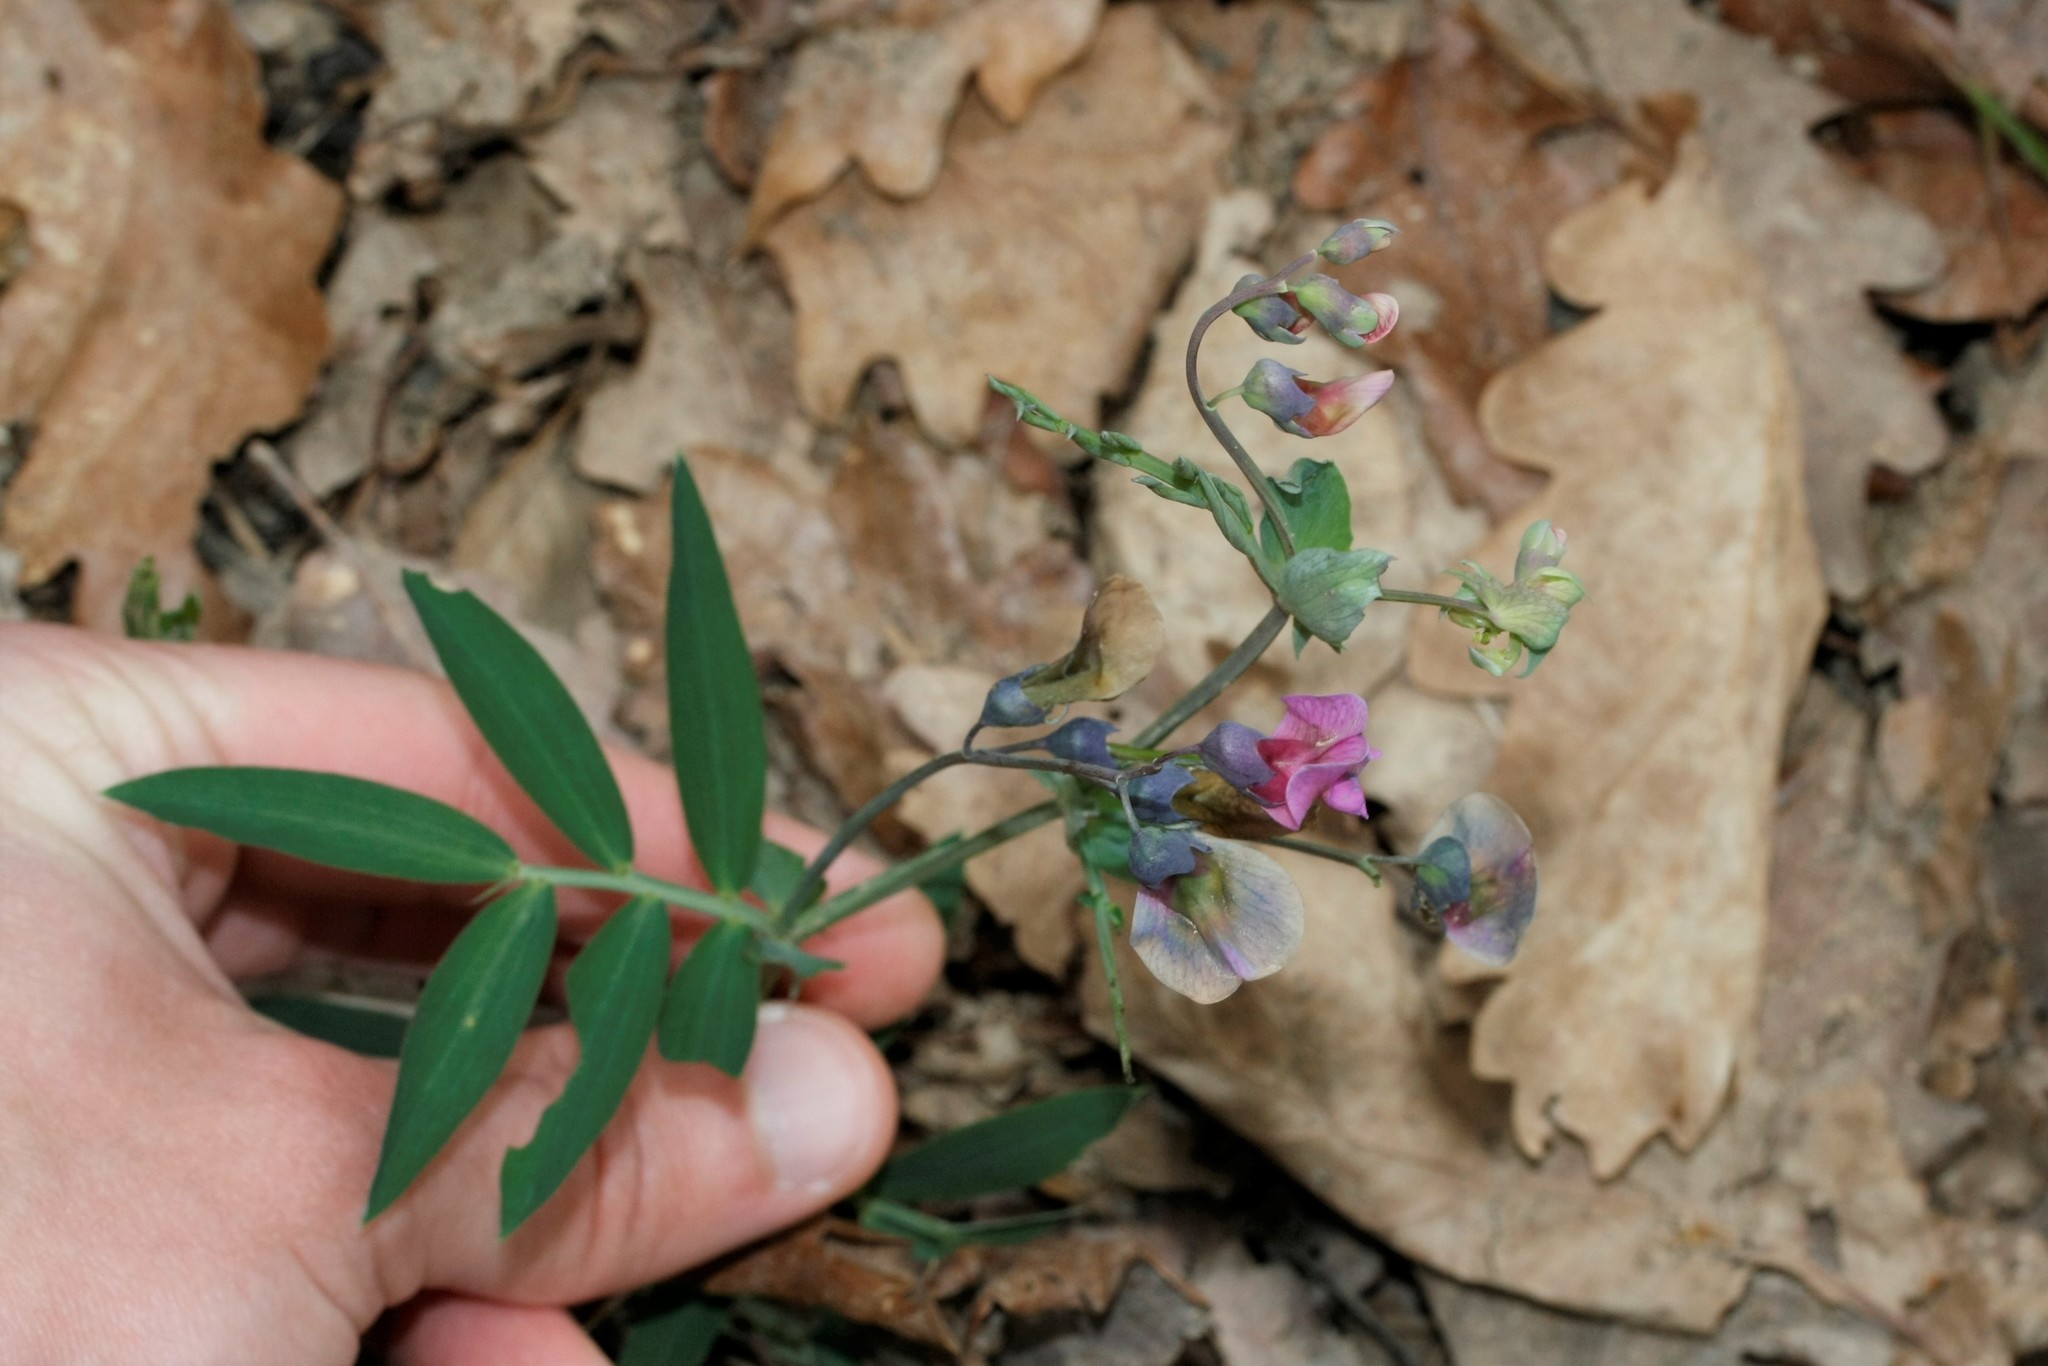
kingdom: Plantae
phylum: Tracheophyta
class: Magnoliopsida
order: Fabales
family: Fabaceae
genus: Lathyrus
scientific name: Lathyrus linifolius
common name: Bitter-vetch
